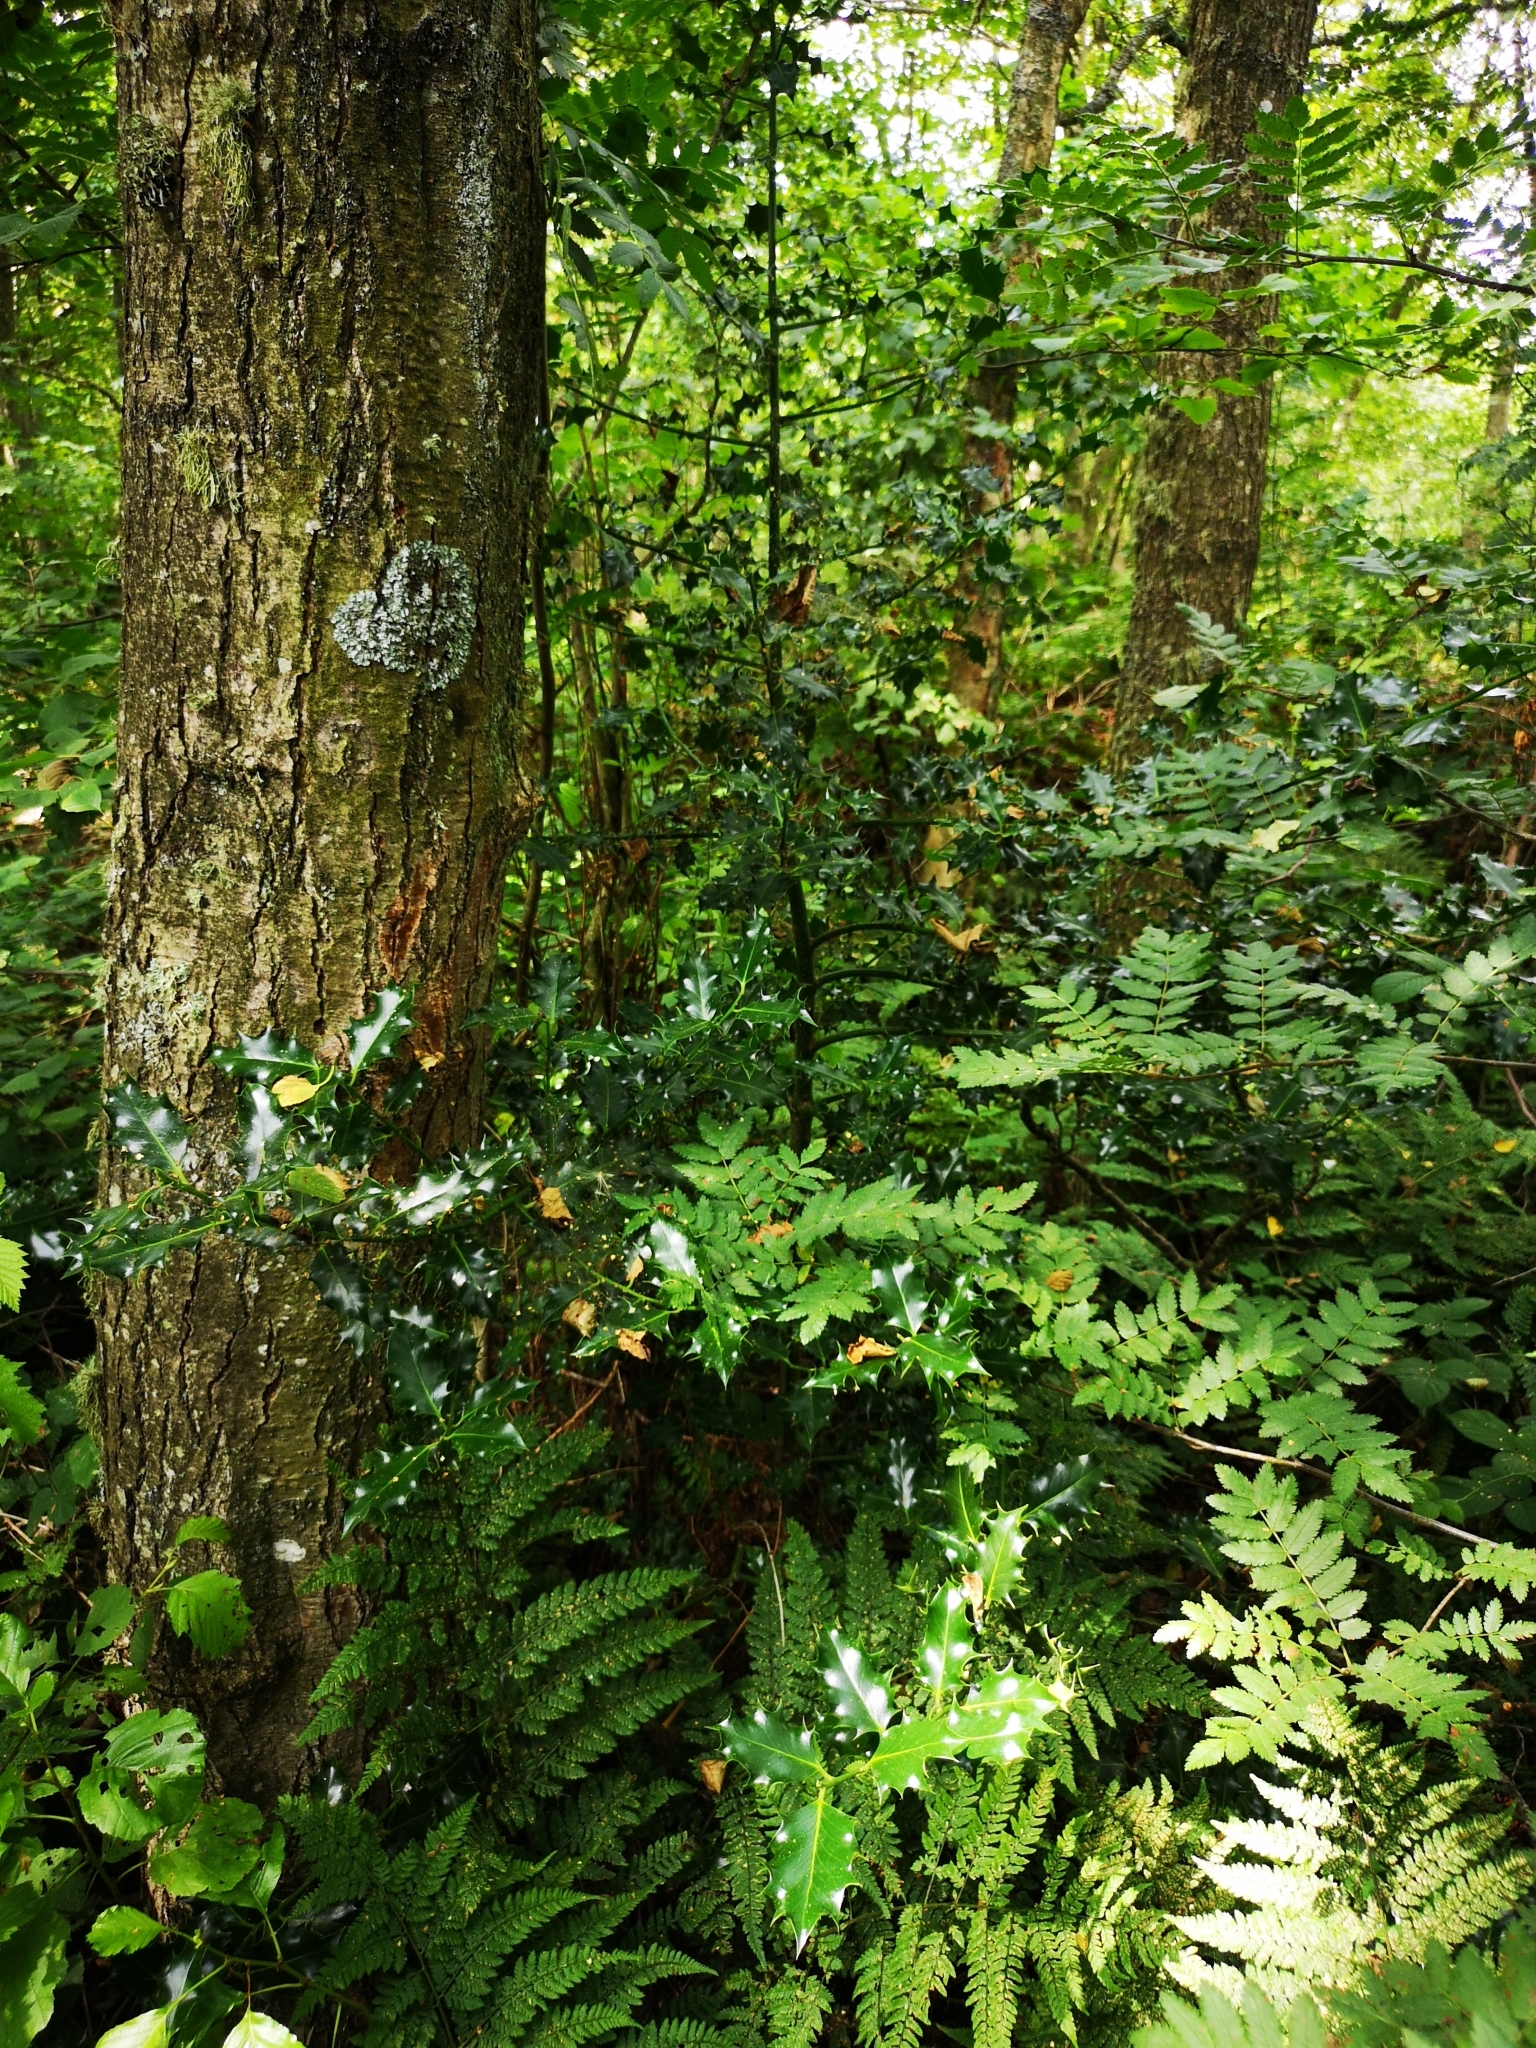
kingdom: Plantae
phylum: Tracheophyta
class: Magnoliopsida
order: Aquifoliales
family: Aquifoliaceae
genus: Ilex
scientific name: Ilex aquifolium
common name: English holly
